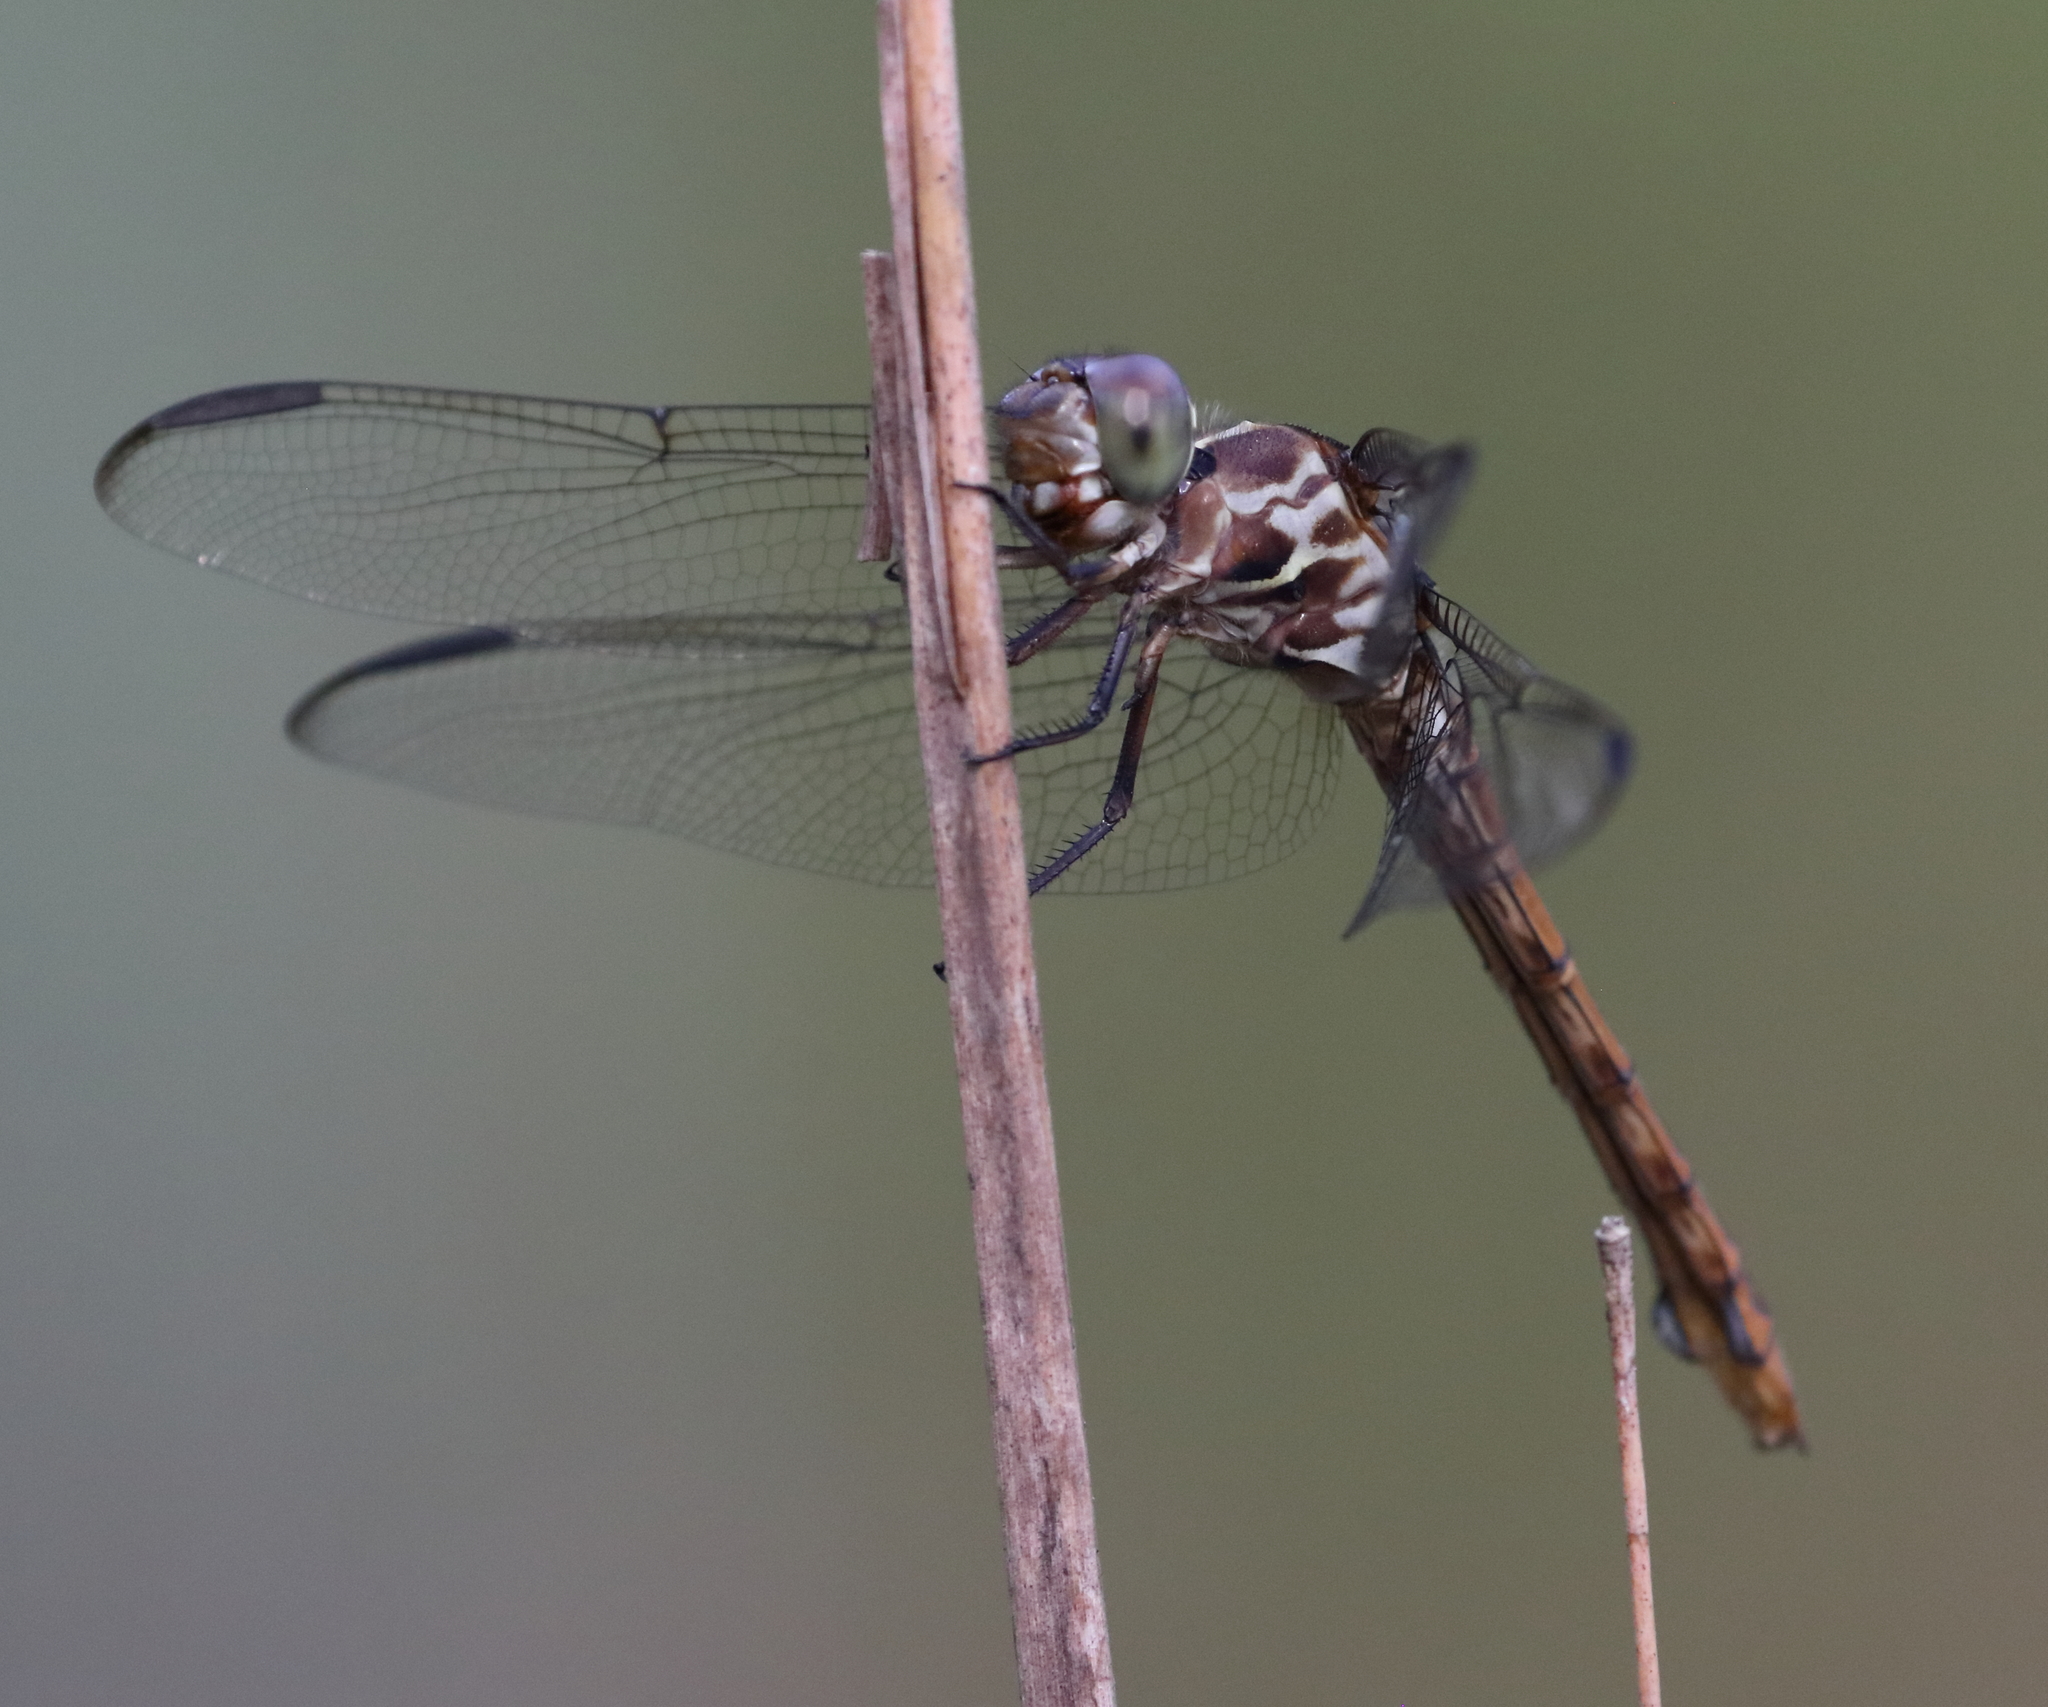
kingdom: Animalia
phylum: Arthropoda
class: Insecta
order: Odonata
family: Libellulidae
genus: Orthemis
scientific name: Orthemis ferruginea
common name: Roseate skimmer
